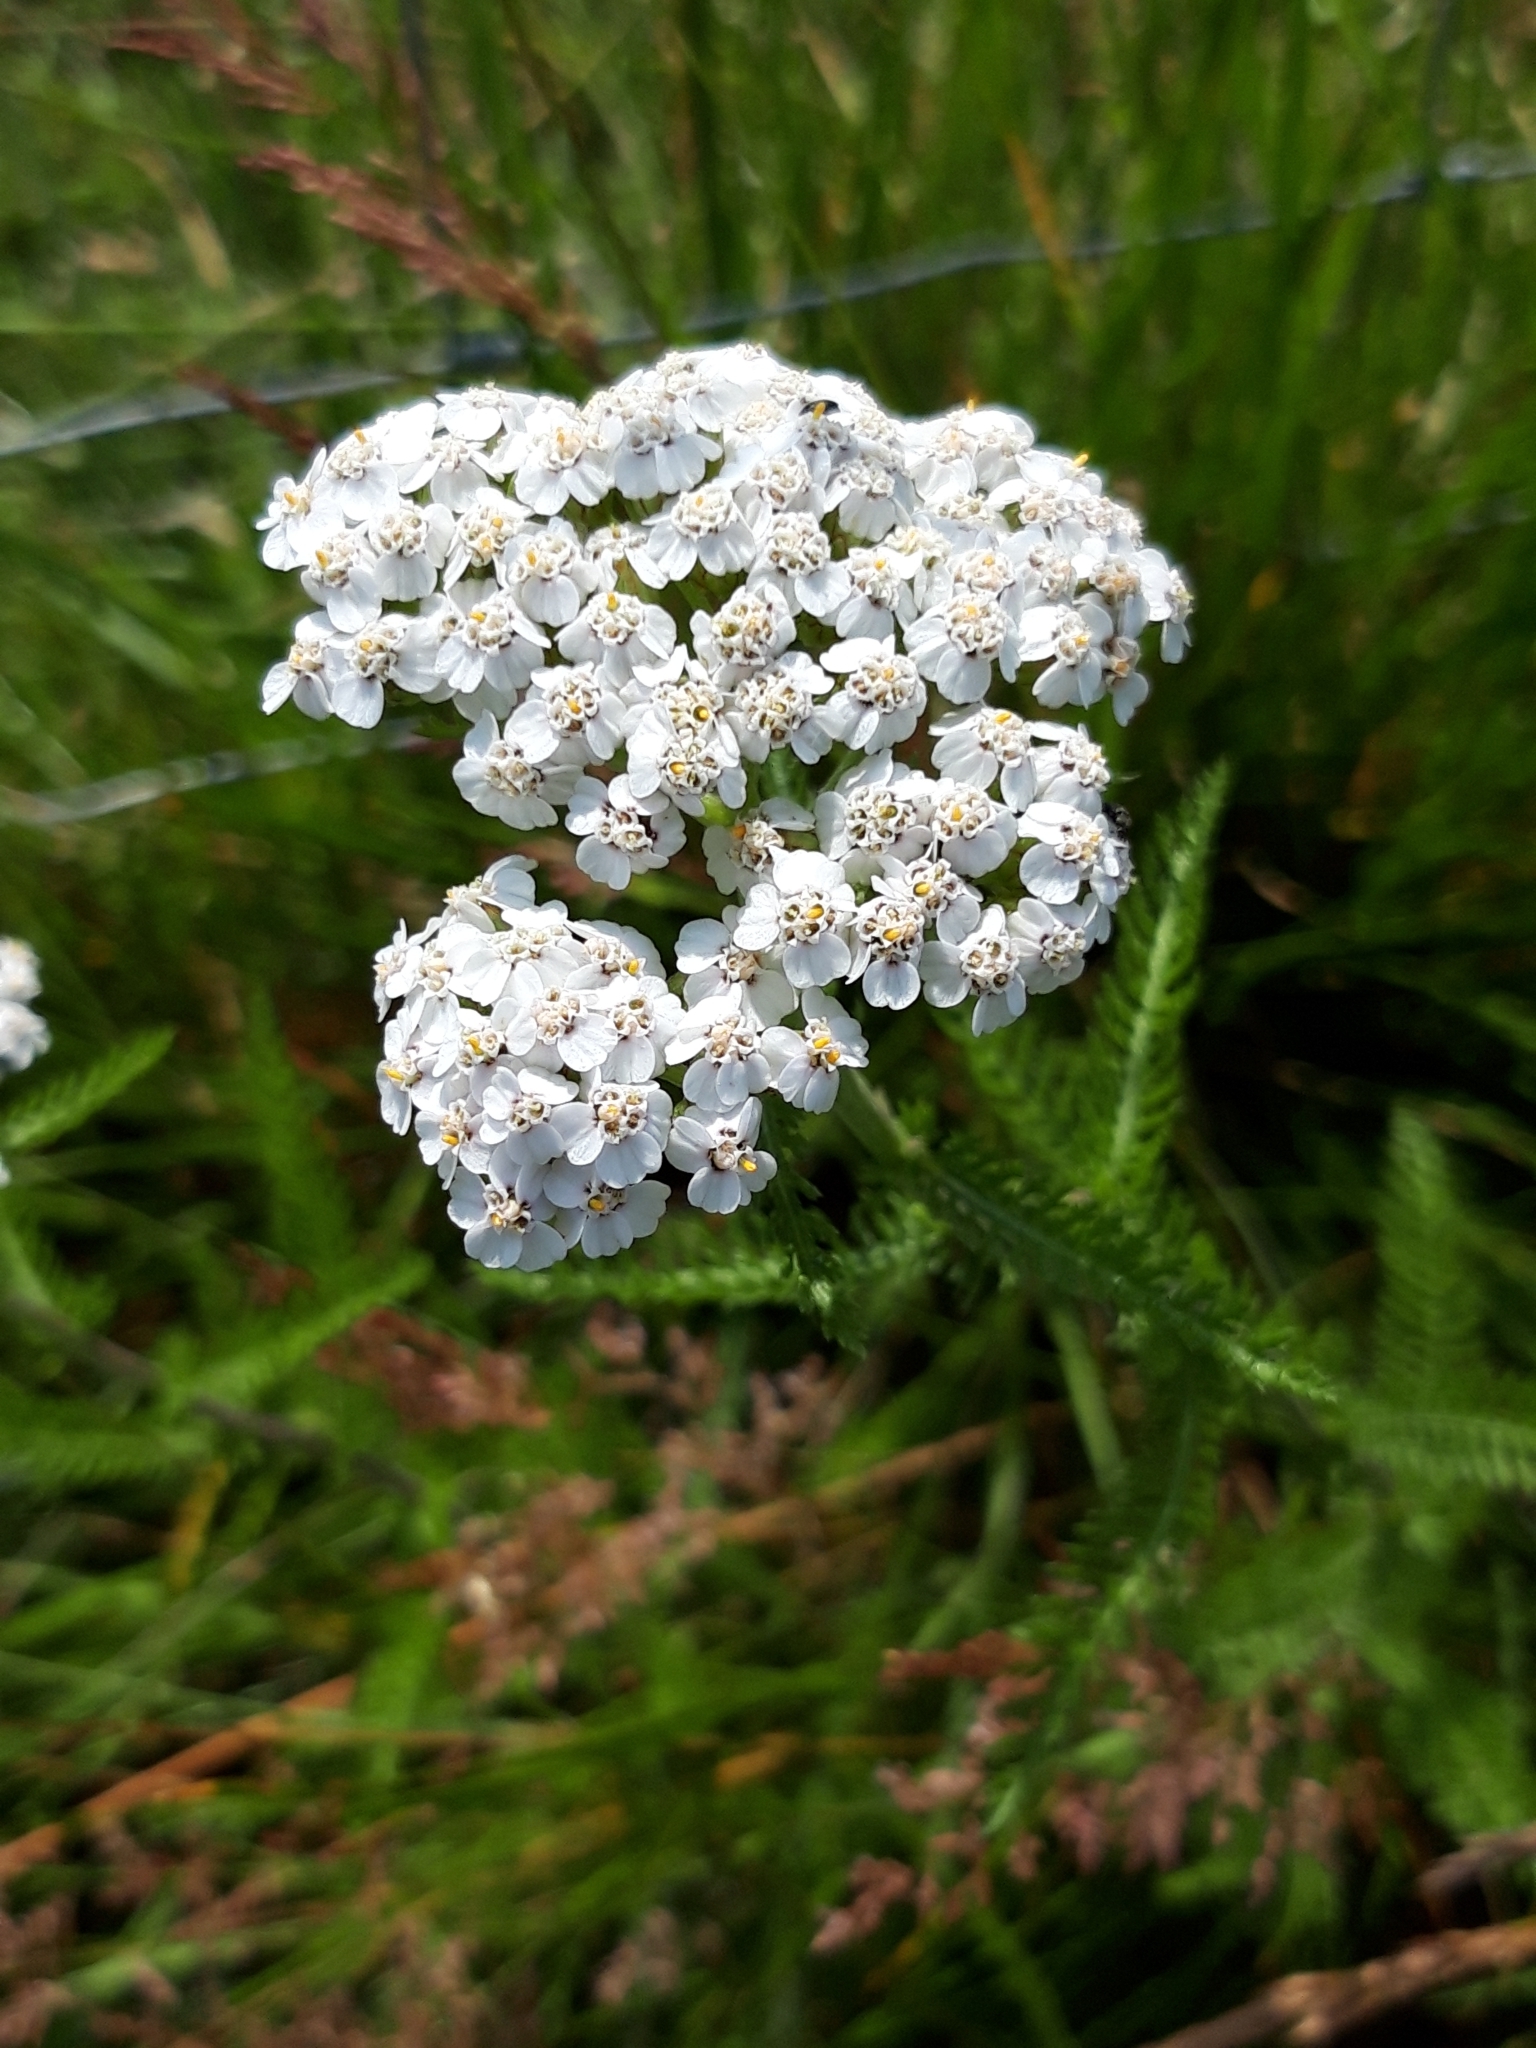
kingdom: Plantae
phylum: Tracheophyta
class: Magnoliopsida
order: Asterales
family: Asteraceae
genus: Achillea
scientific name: Achillea millefolium
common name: Yarrow
